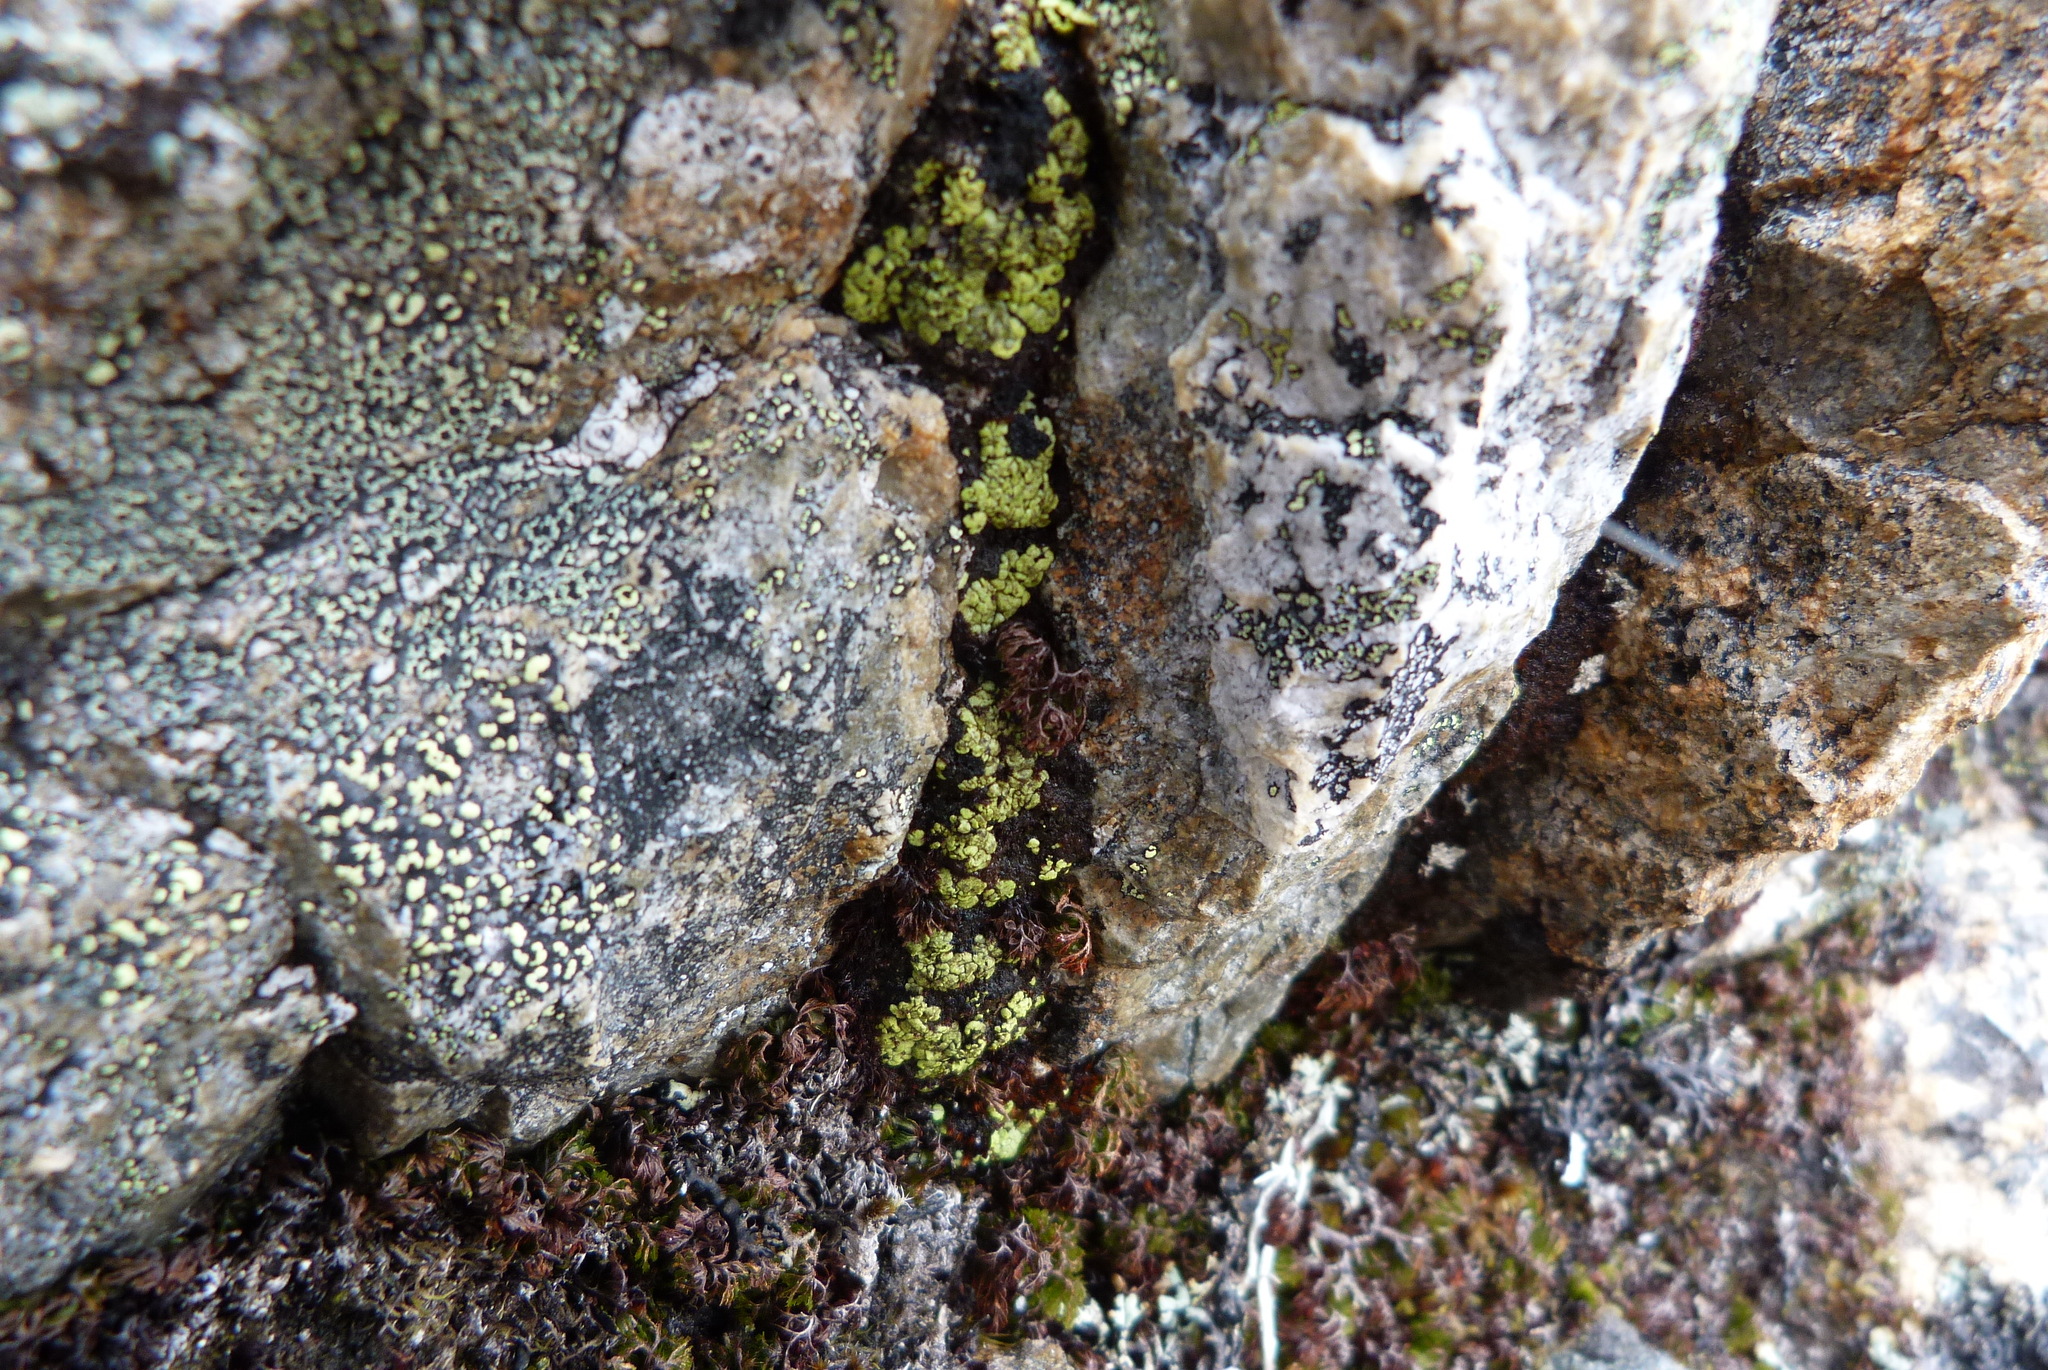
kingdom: Fungi
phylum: Ascomycota
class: Lecanoromycetes
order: Umbilicariales
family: Arthrorhaphidaceae
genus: Arthrorhaphis
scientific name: Arthrorhaphis alpina
